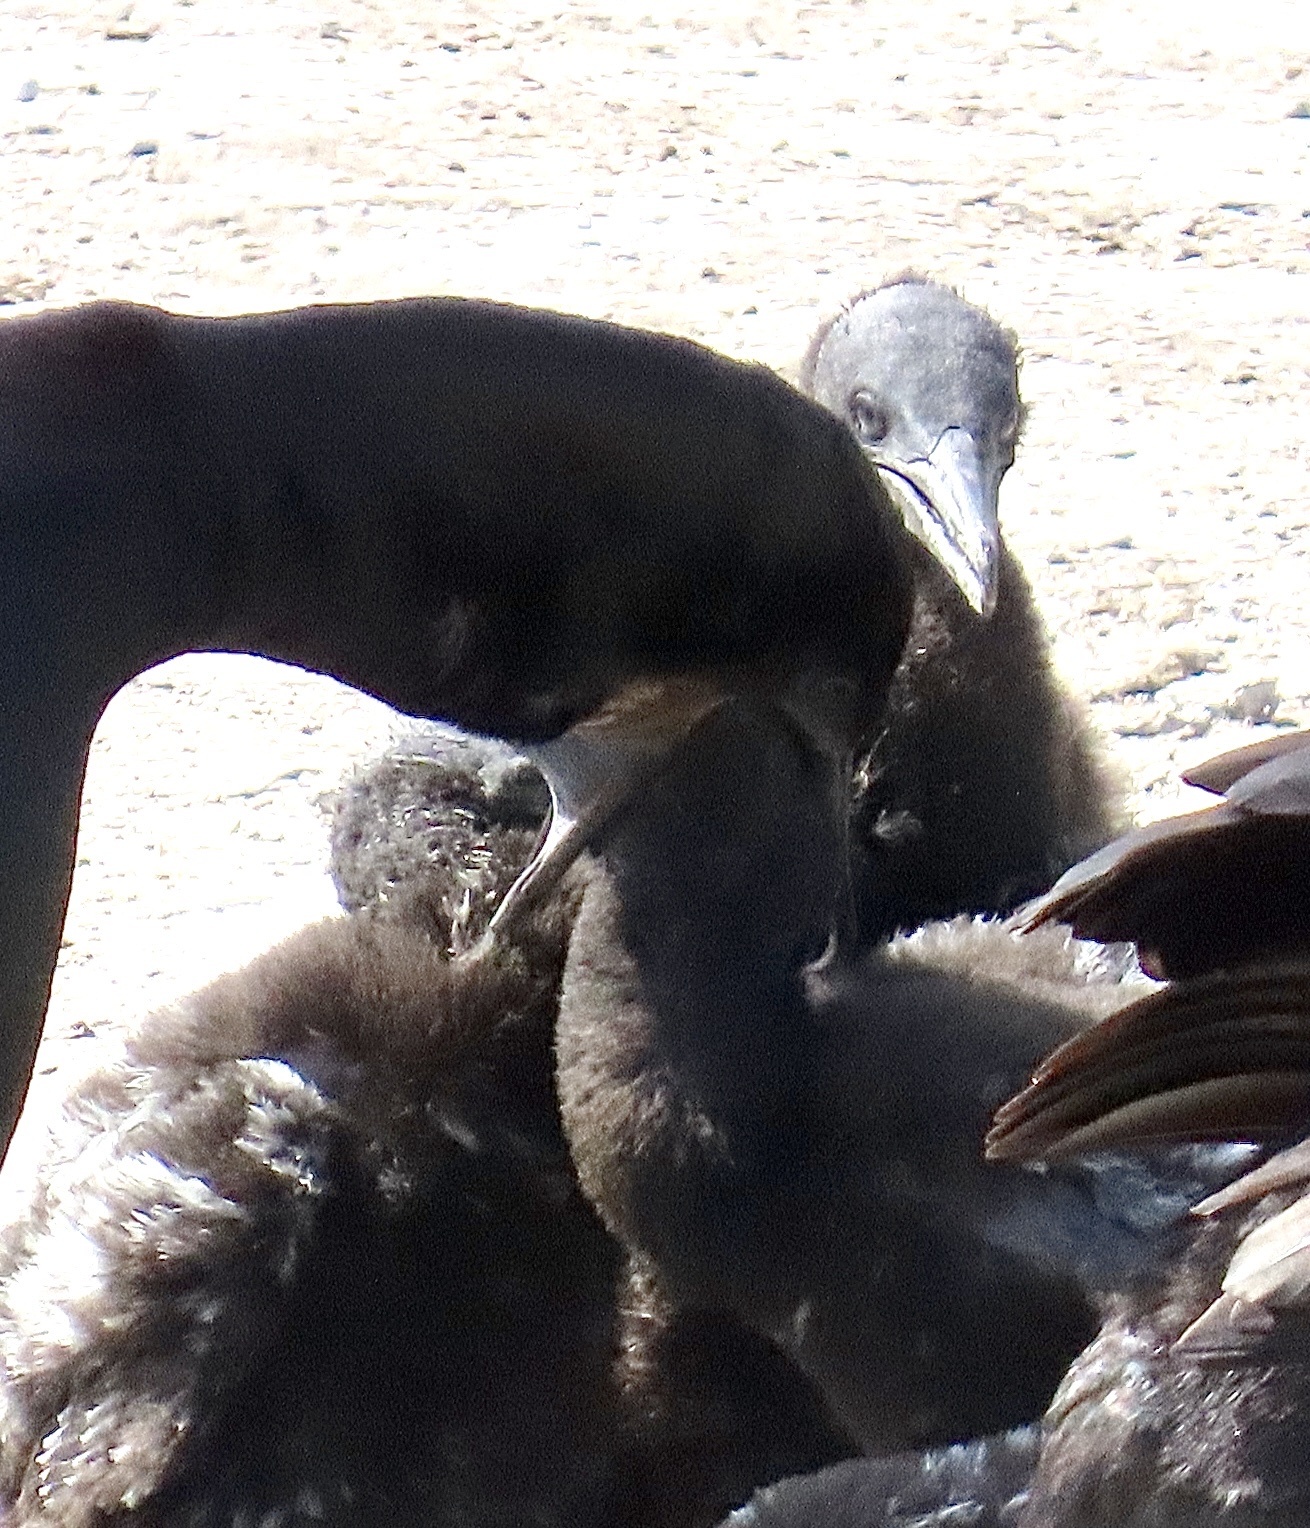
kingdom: Animalia
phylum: Chordata
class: Aves
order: Suliformes
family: Phalacrocoracidae
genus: Urile
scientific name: Urile penicillatus
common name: Brandt's cormorant
